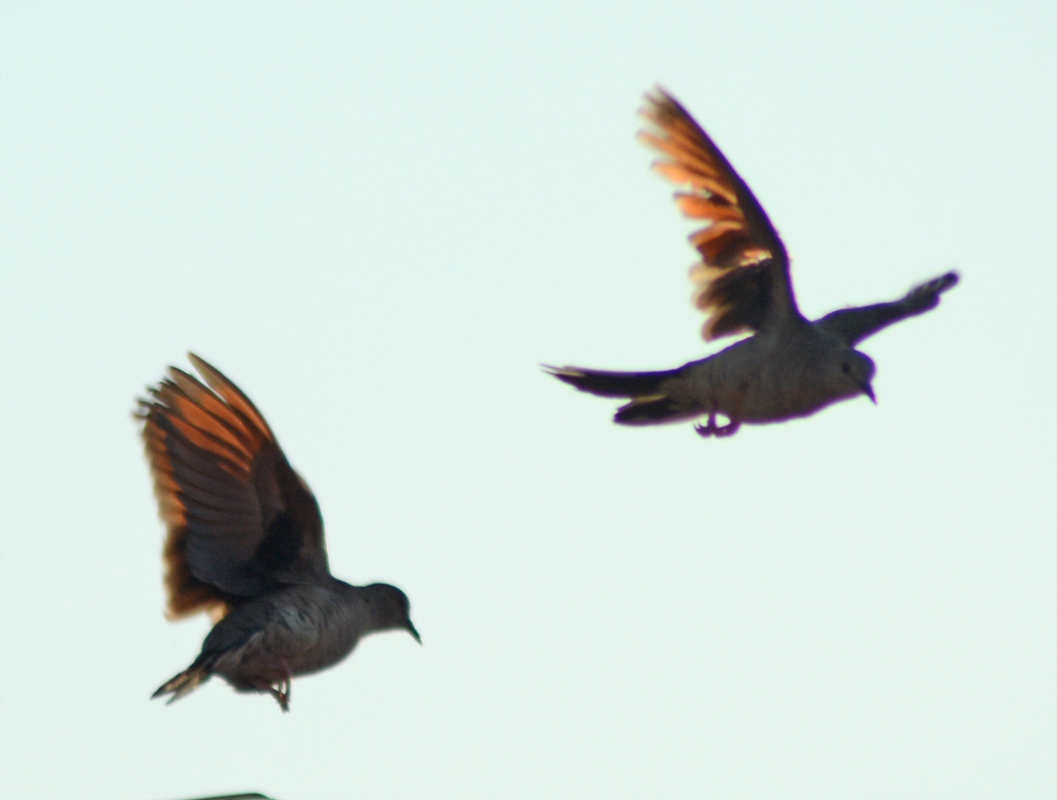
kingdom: Animalia
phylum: Chordata
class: Aves
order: Columbiformes
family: Columbidae
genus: Columbina
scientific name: Columbina inca
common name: Inca dove
